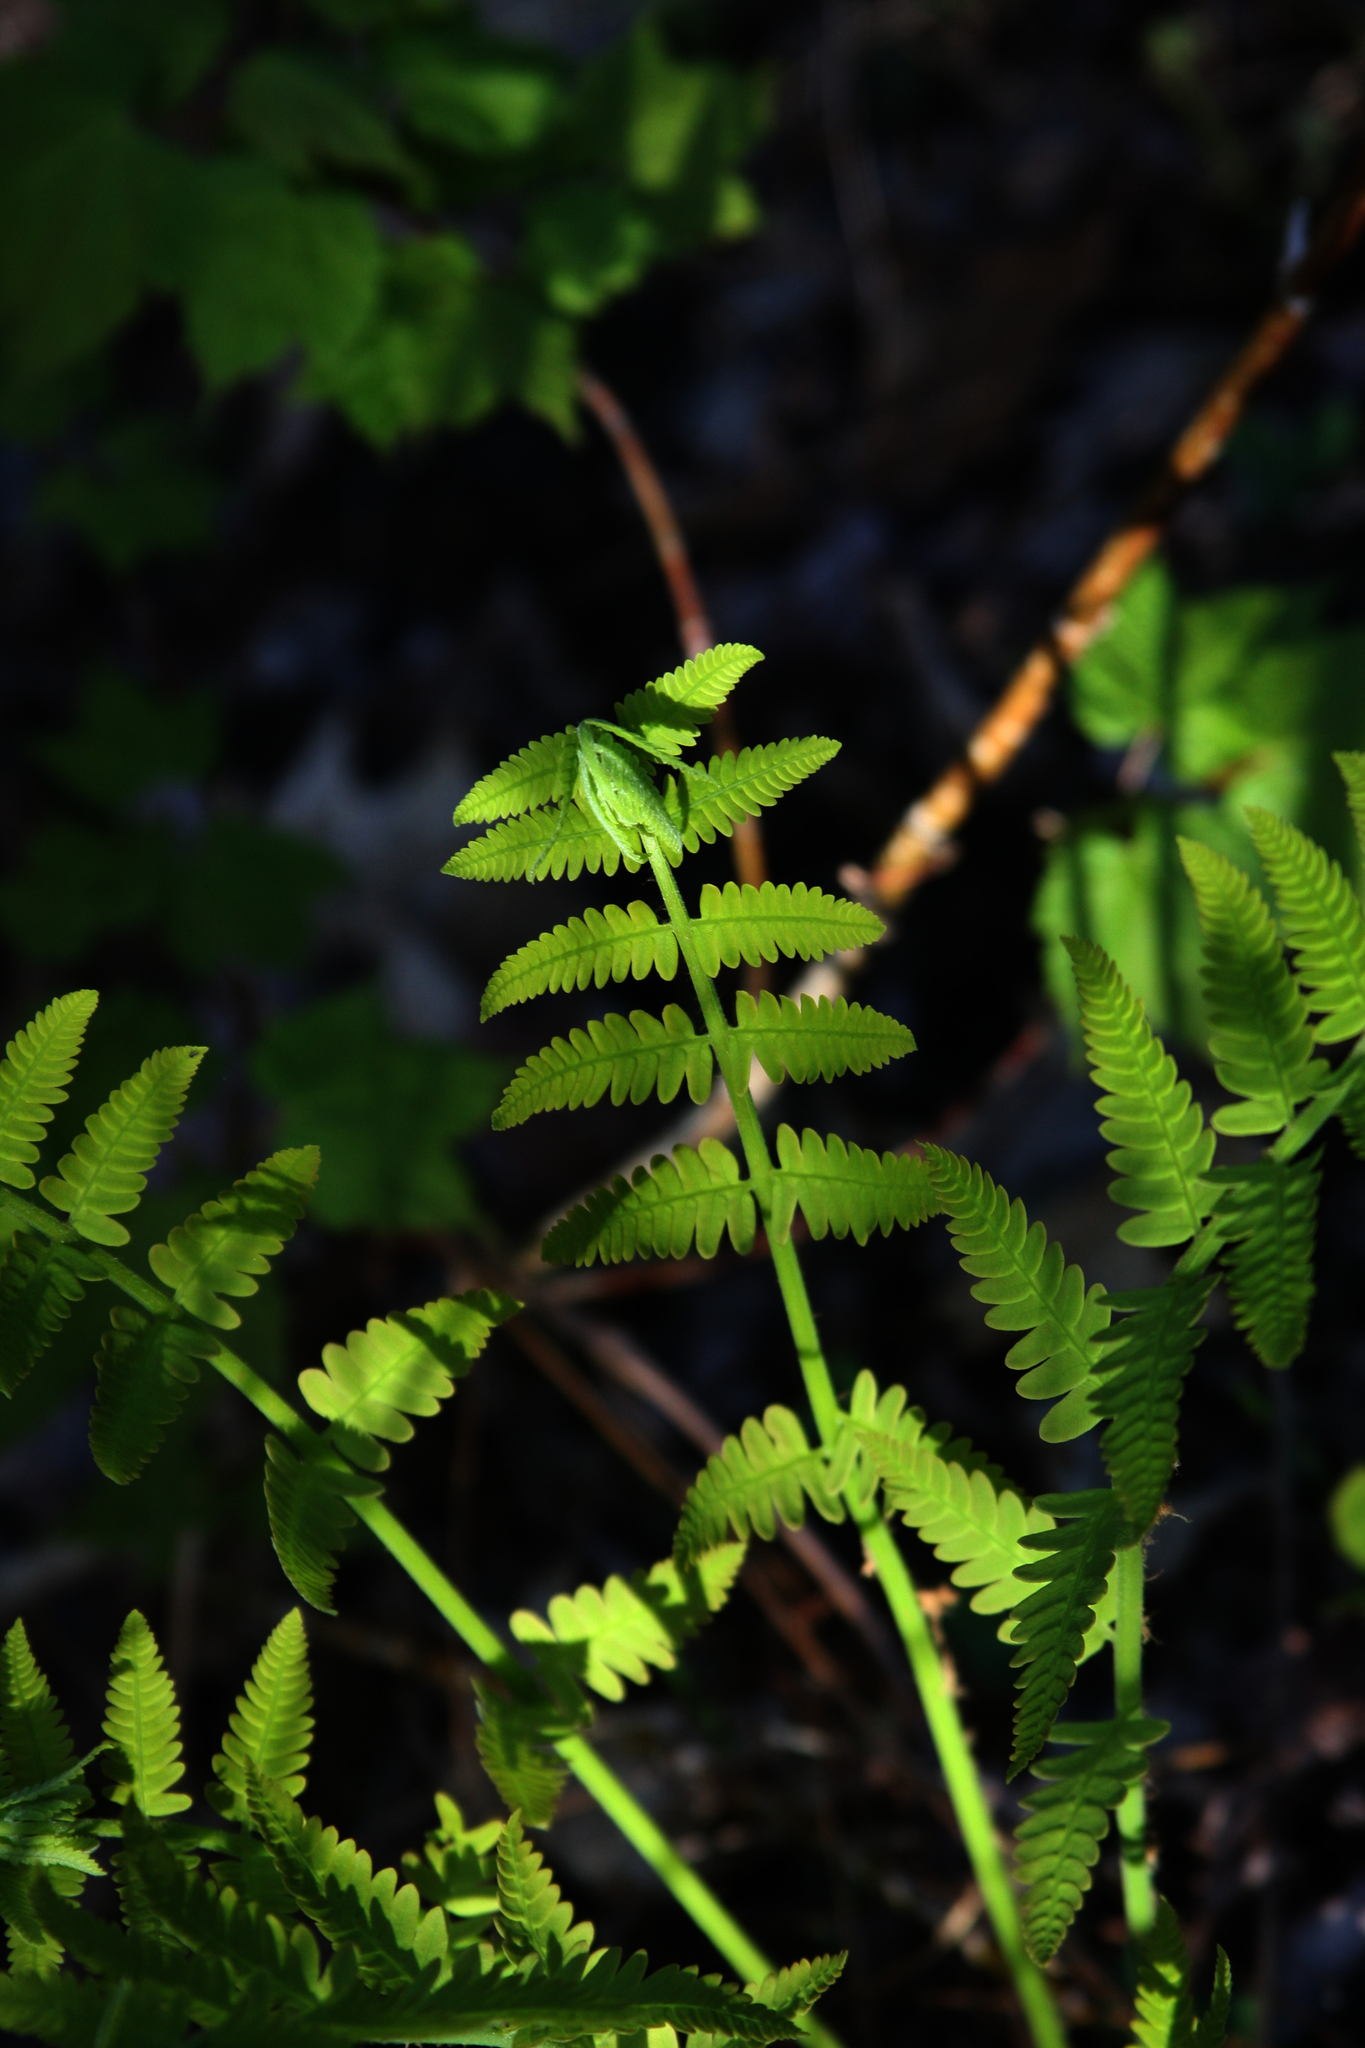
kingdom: Plantae
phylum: Tracheophyta
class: Polypodiopsida
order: Osmundales
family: Osmundaceae
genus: Claytosmunda
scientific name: Claytosmunda claytoniana
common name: Clayton's fern
